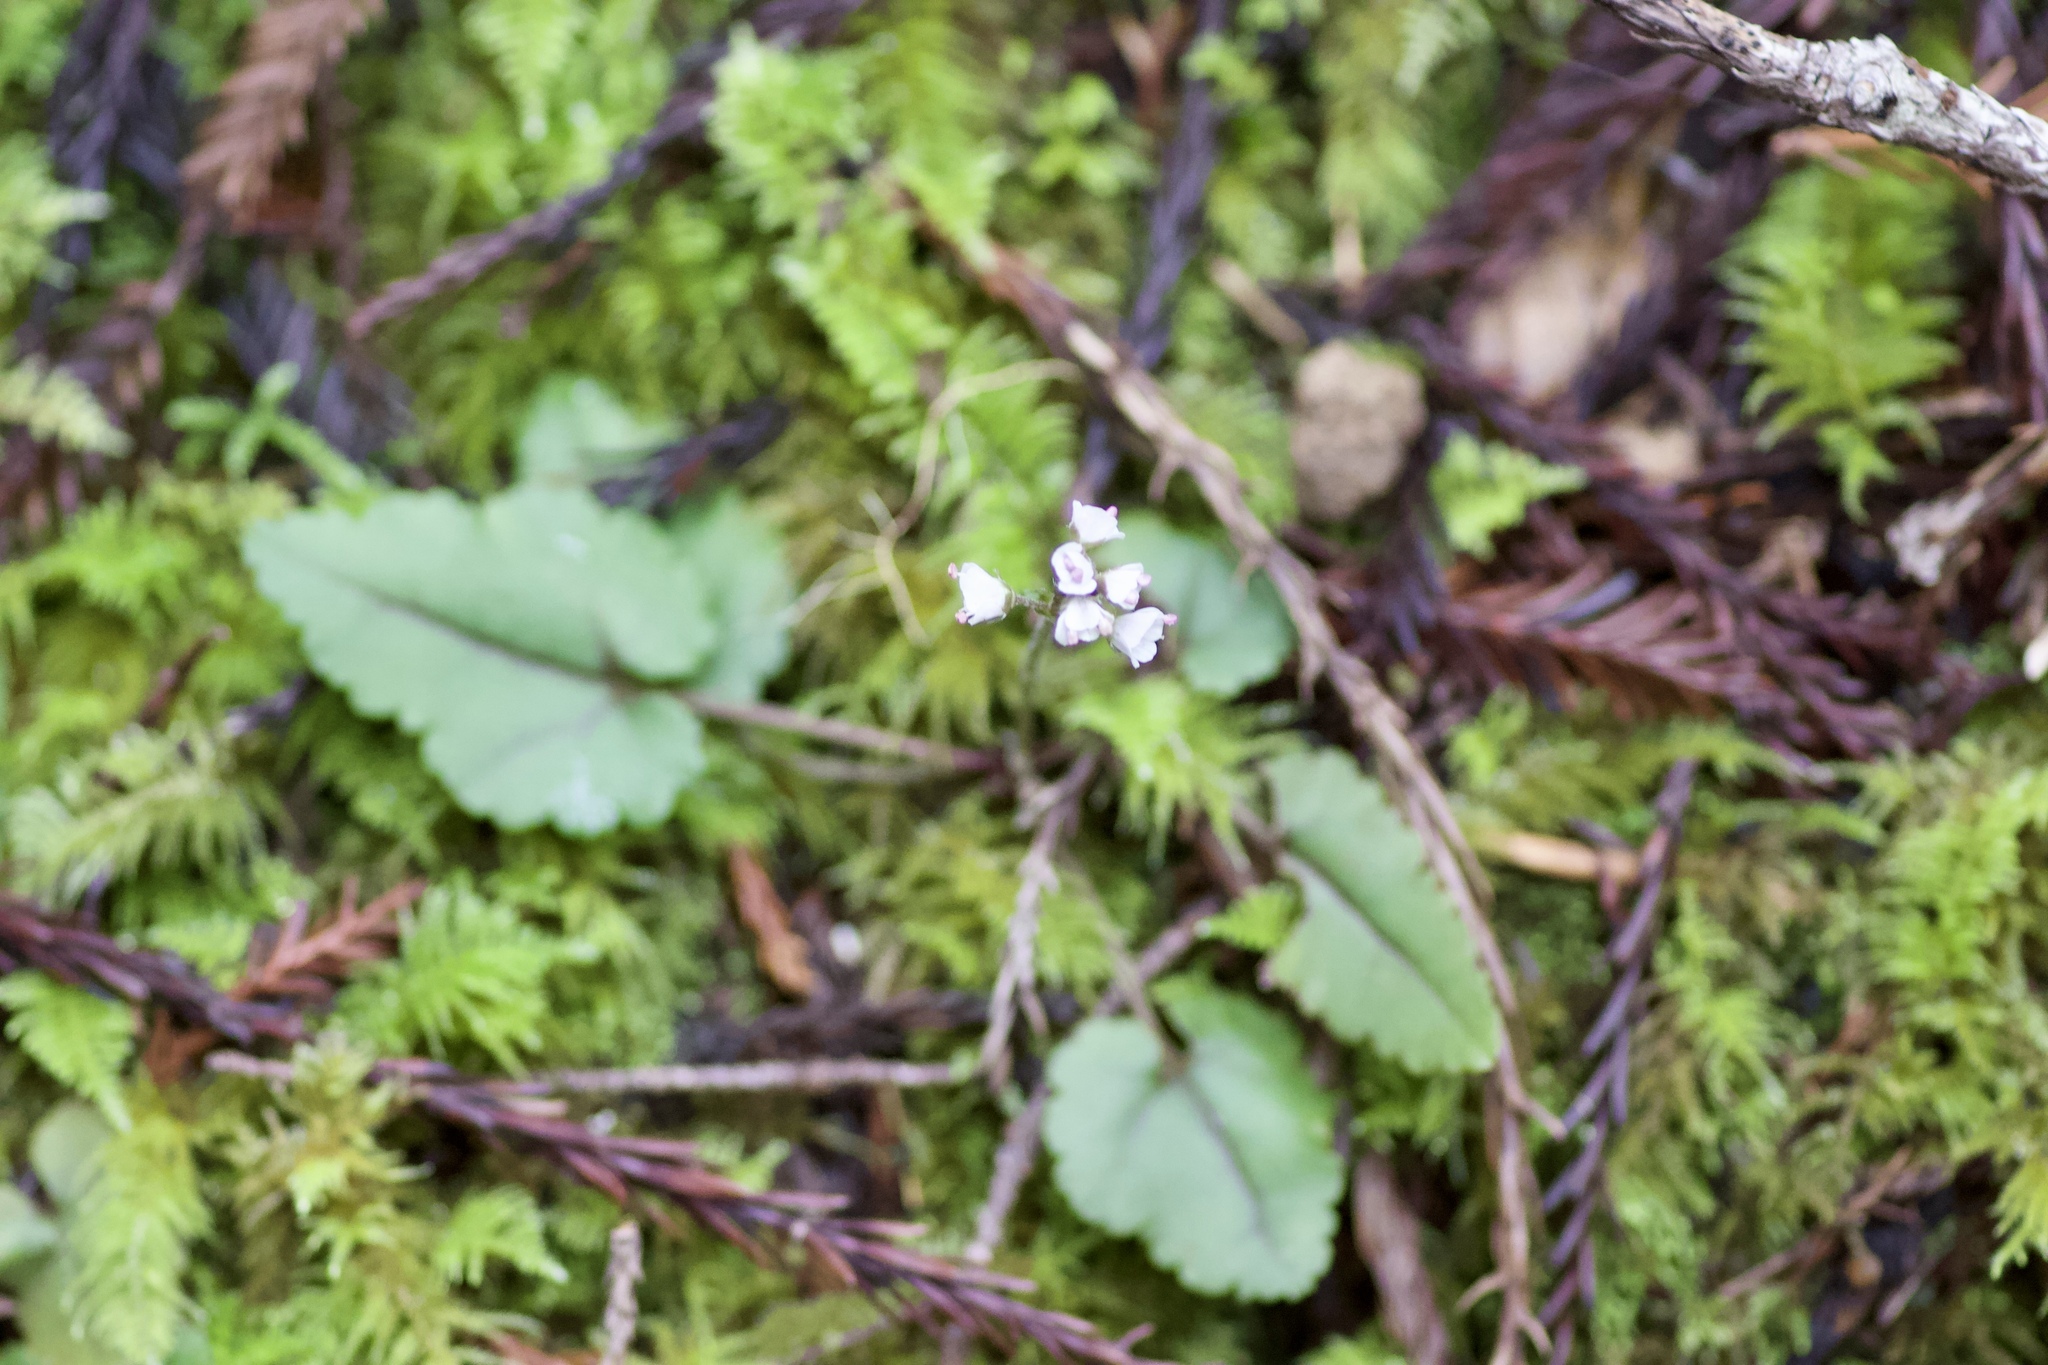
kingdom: Plantae
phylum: Tracheophyta
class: Magnoliopsida
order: Lamiales
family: Plantaginaceae
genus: Synthyris
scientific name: Synthyris cordata
